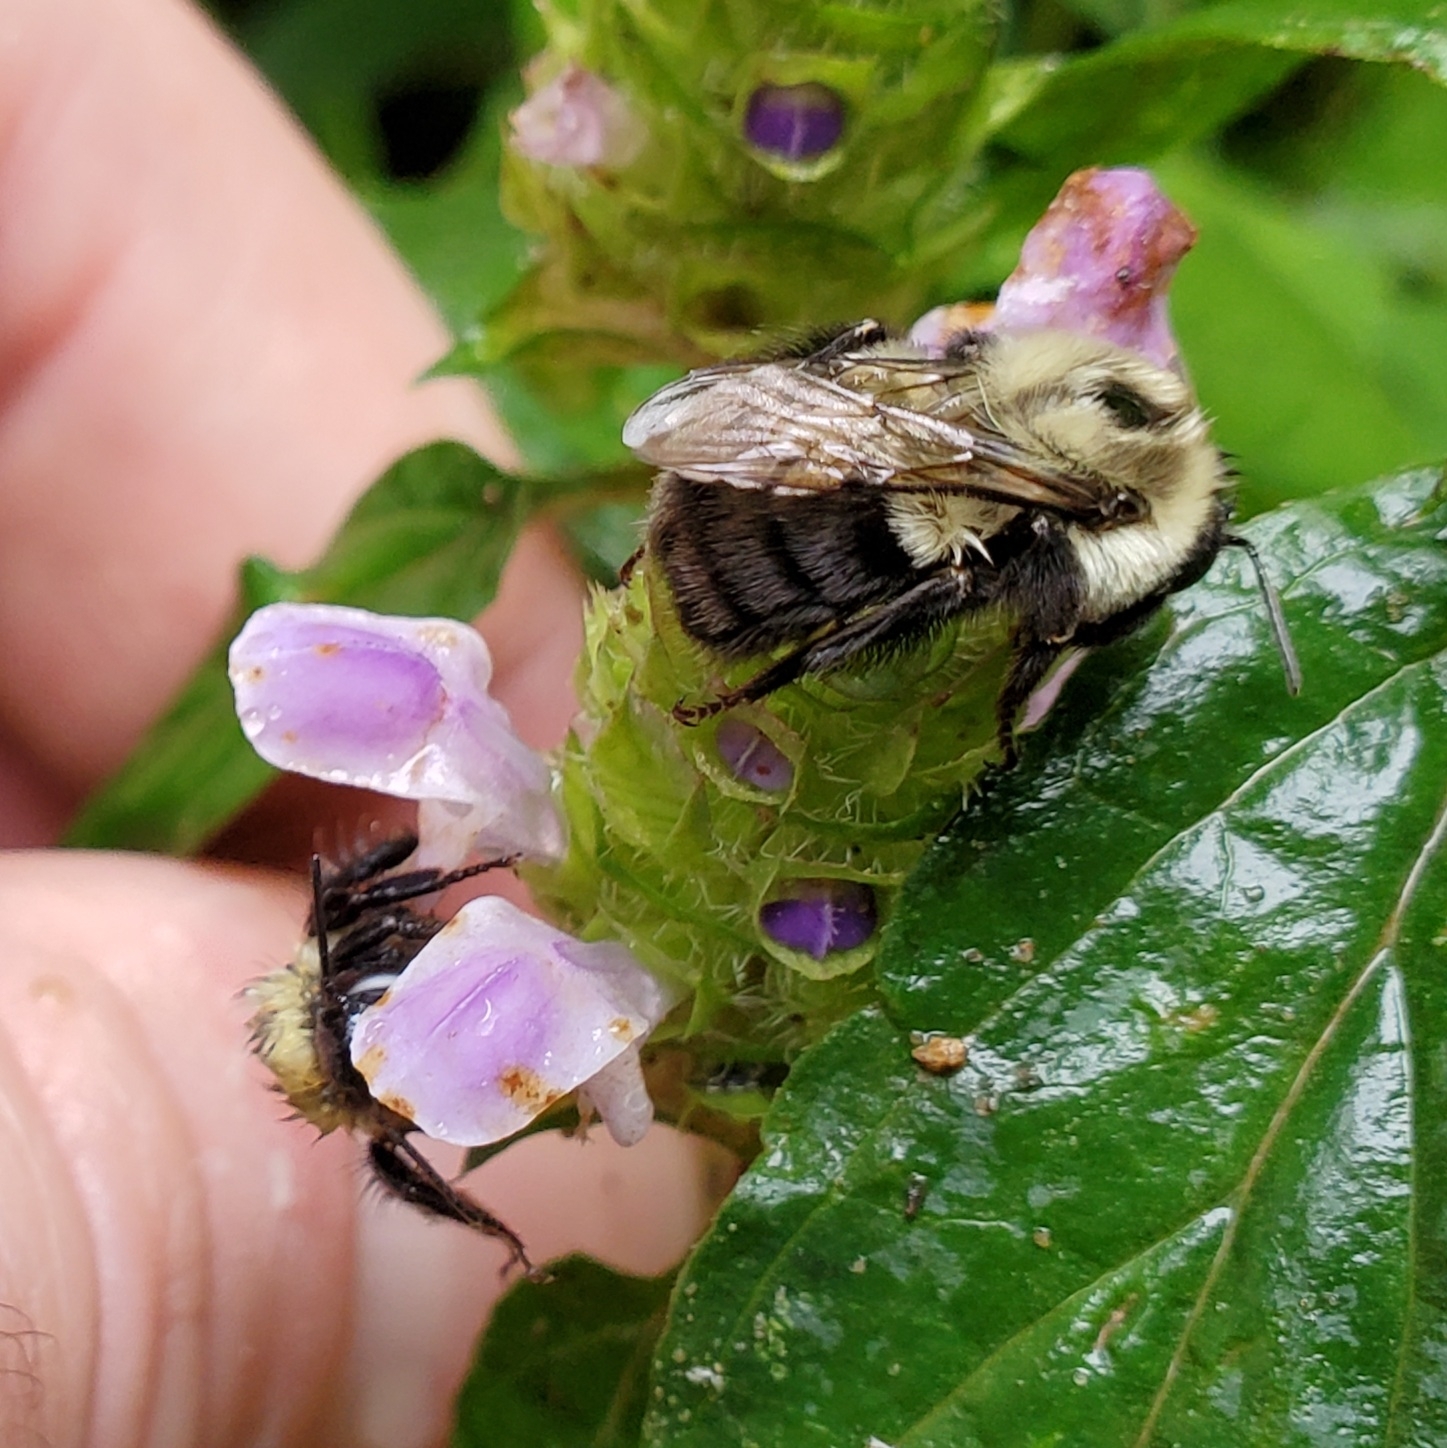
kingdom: Animalia
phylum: Arthropoda
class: Insecta
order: Hymenoptera
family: Apidae
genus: Bombus
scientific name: Bombus impatiens
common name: Common eastern bumble bee
